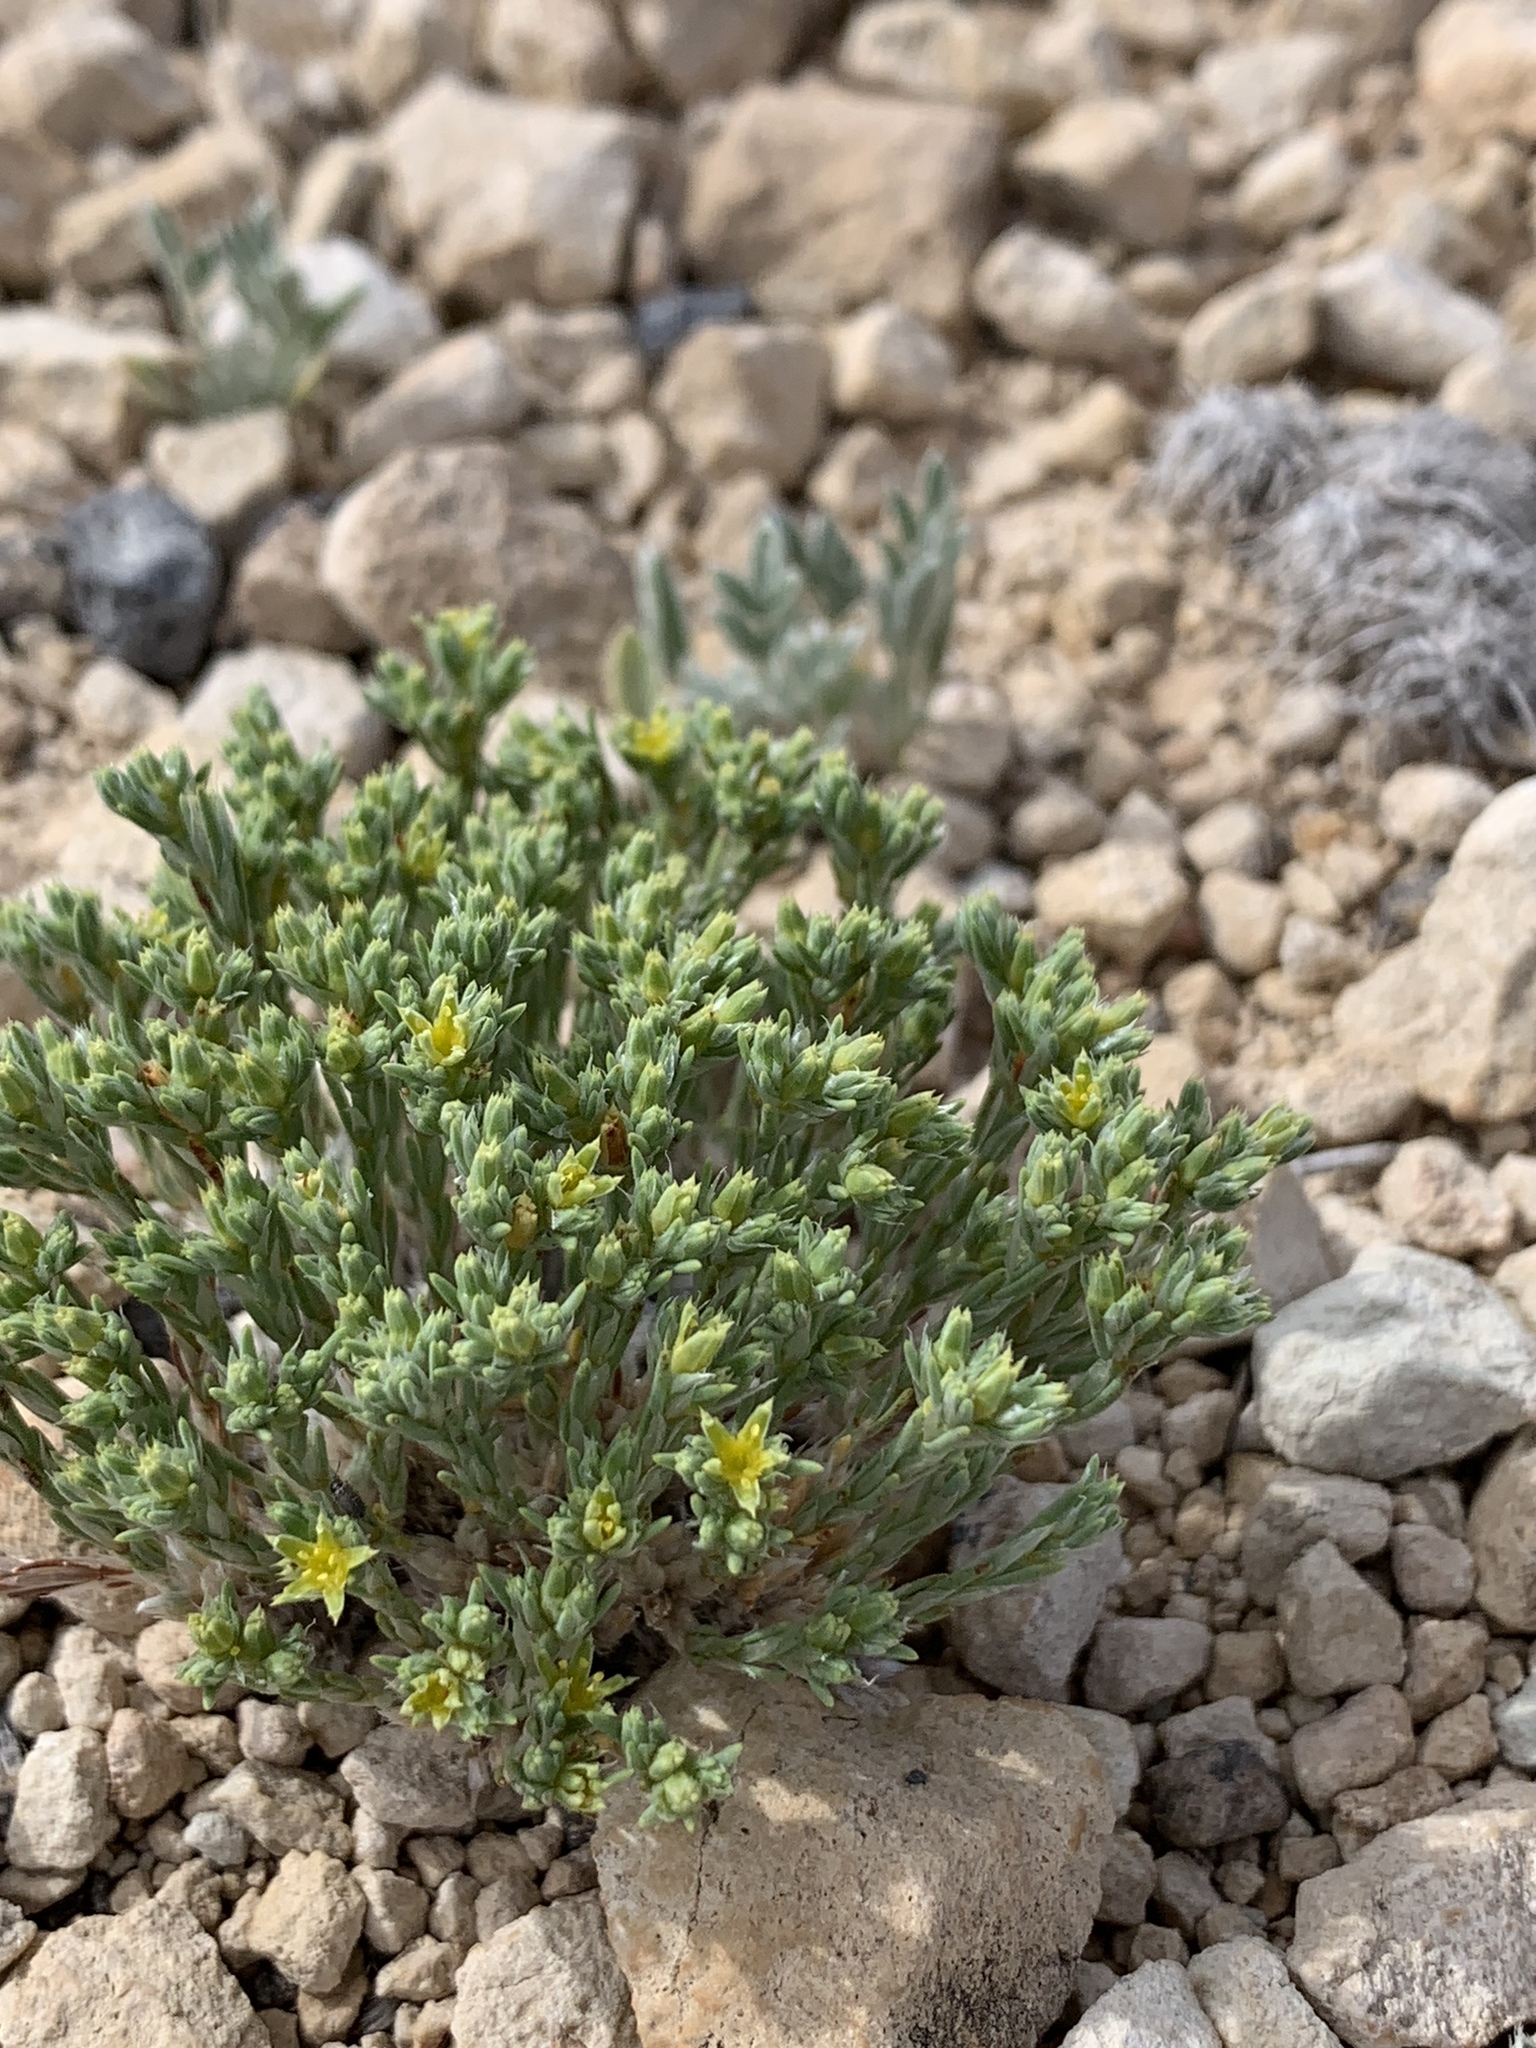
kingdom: Plantae
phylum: Tracheophyta
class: Magnoliopsida
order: Caryophyllales
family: Caryophyllaceae
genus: Paronychia
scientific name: Paronychia jamesii
